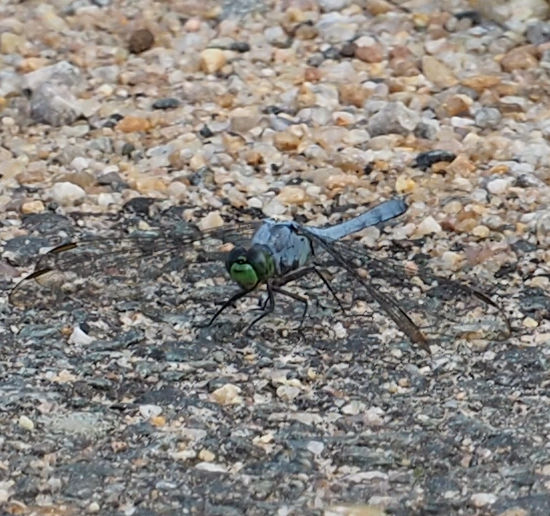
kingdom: Animalia
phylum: Arthropoda
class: Insecta
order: Odonata
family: Libellulidae
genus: Erythemis
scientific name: Erythemis simplicicollis
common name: Eastern pondhawk
